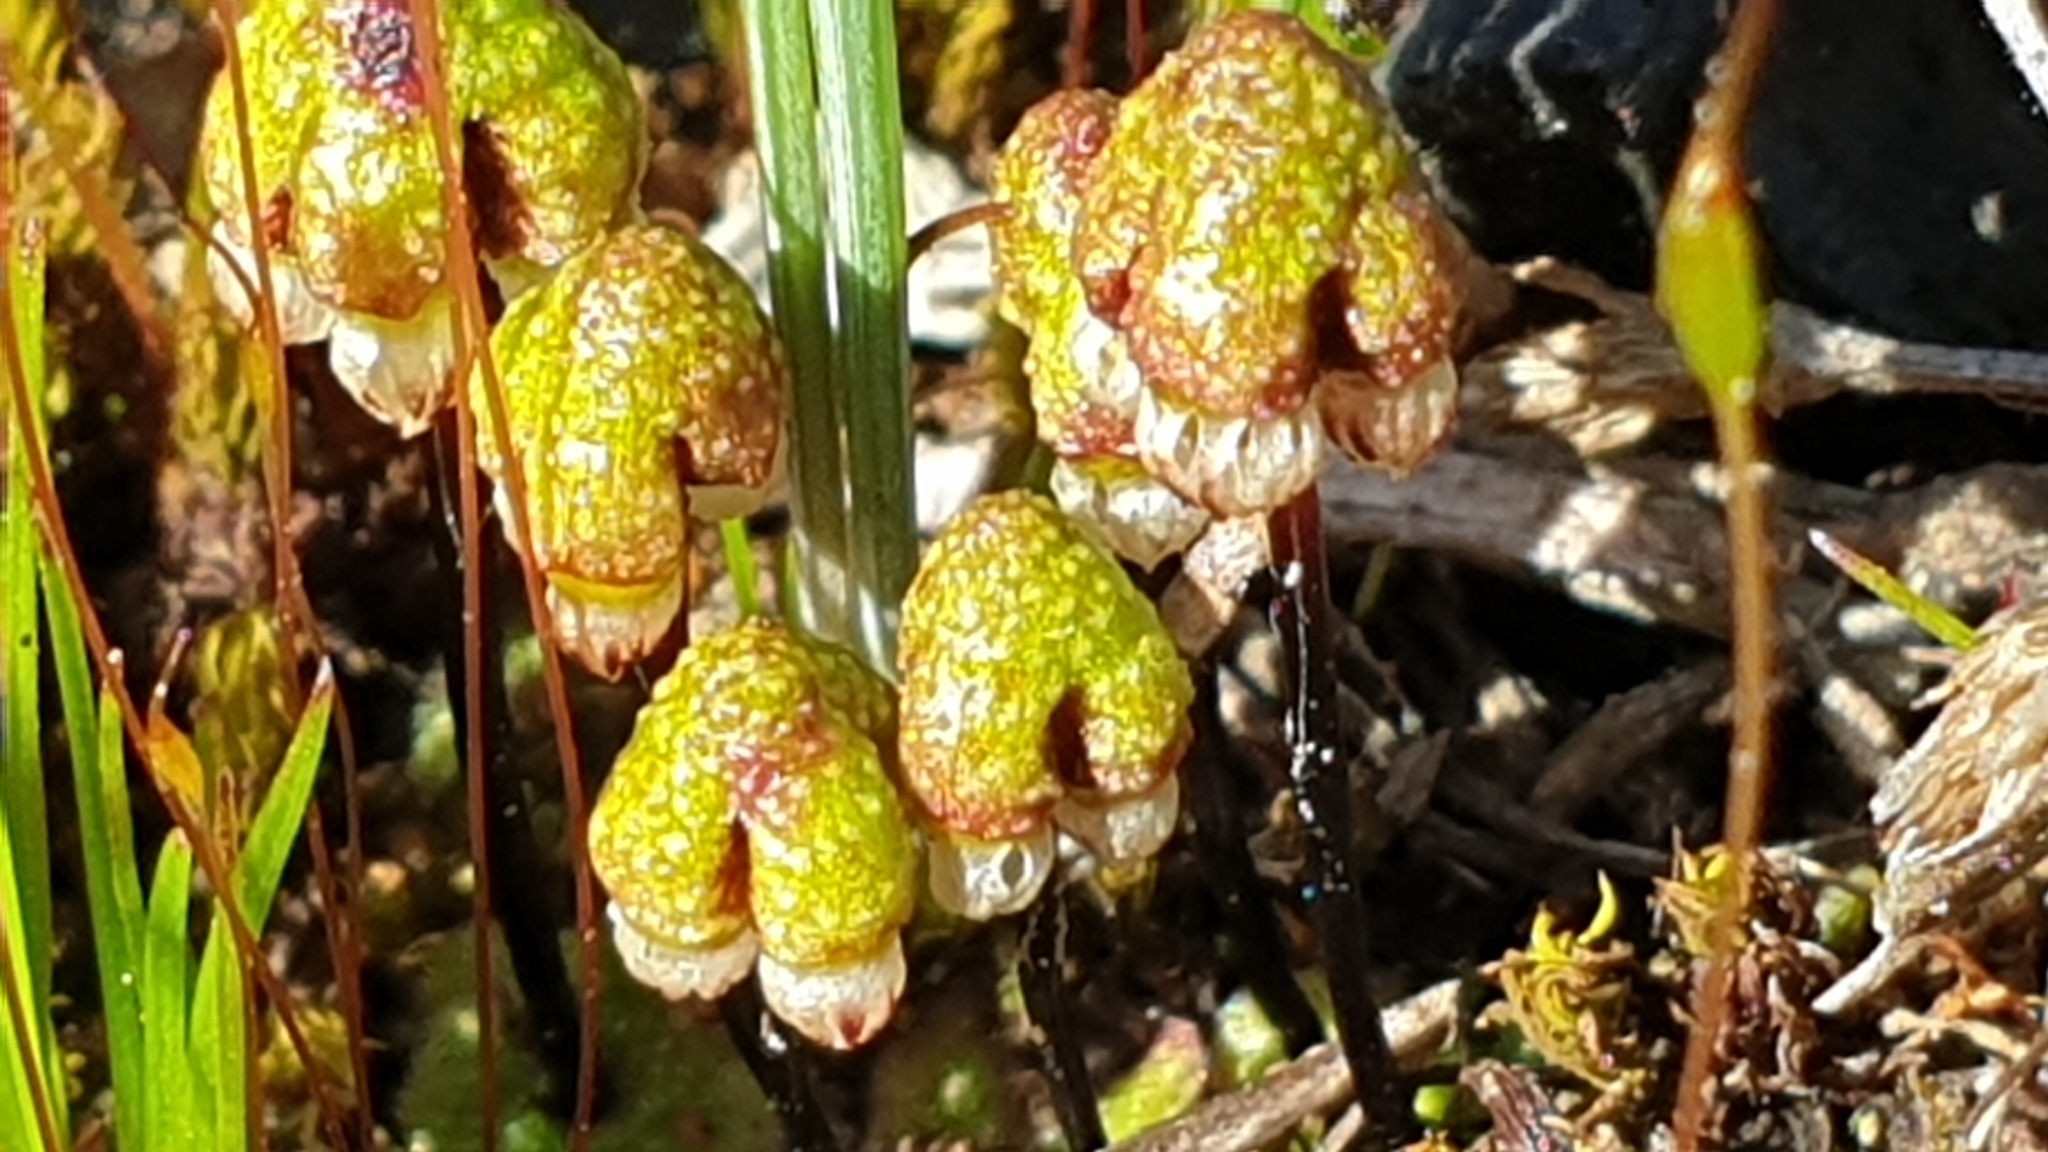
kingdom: Plantae
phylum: Marchantiophyta
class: Marchantiopsida
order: Marchantiales
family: Aytoniaceae
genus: Asterella
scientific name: Asterella drummondii
